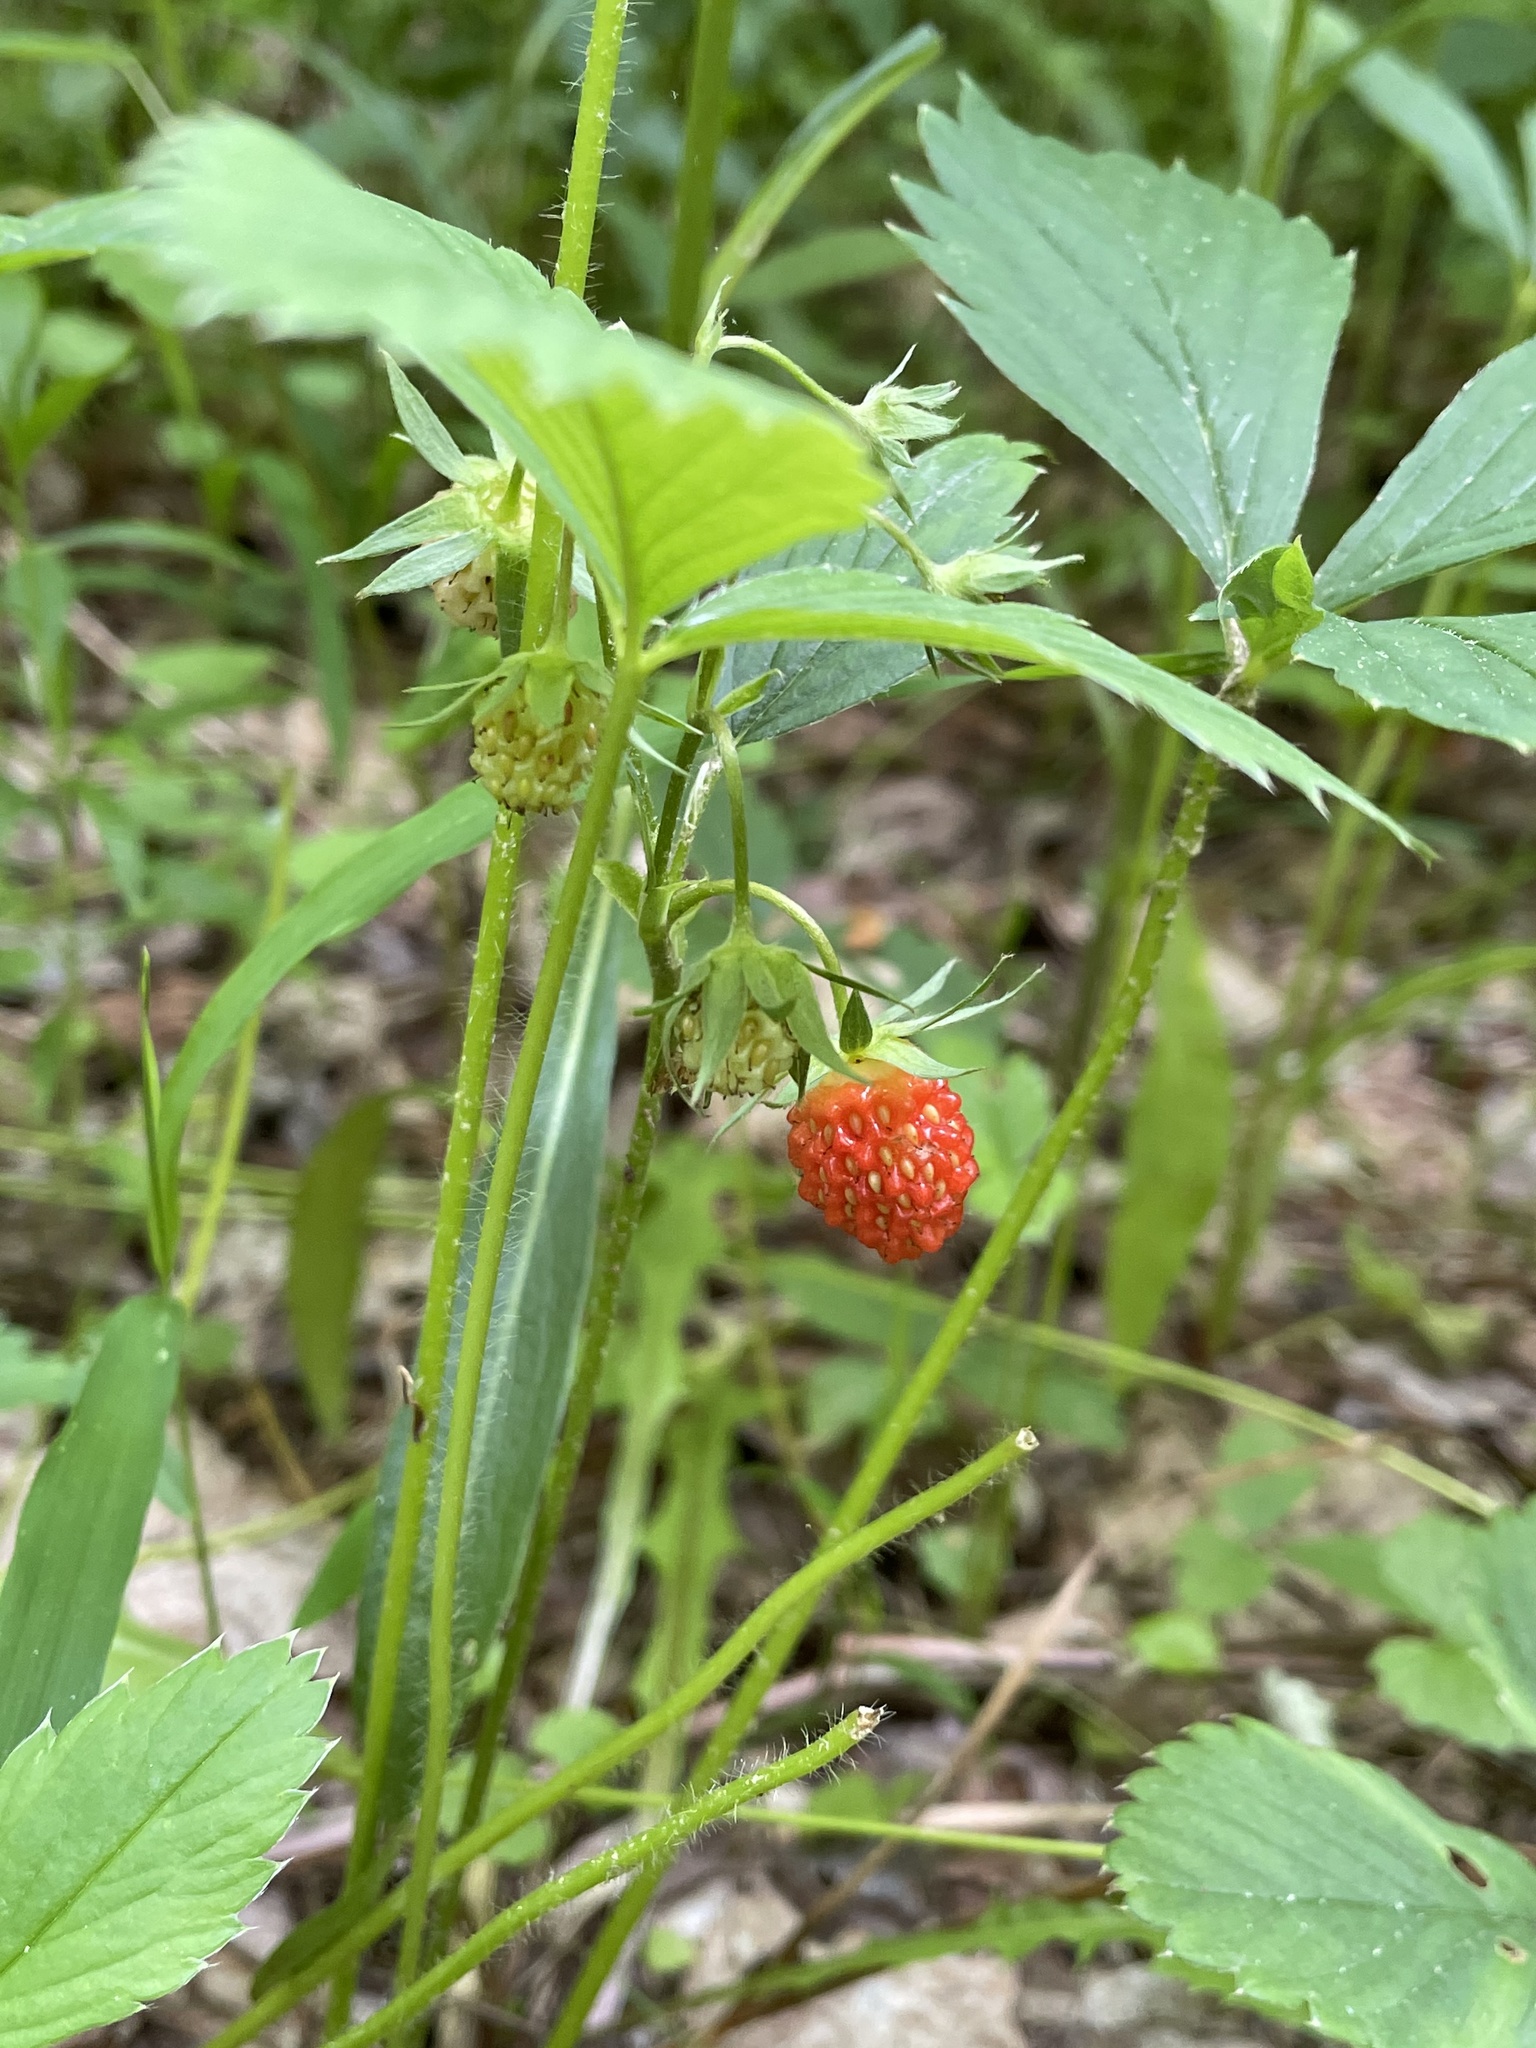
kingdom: Plantae
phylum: Tracheophyta
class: Magnoliopsida
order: Rosales
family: Rosaceae
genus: Fragaria
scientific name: Fragaria vesca
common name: Wild strawberry
